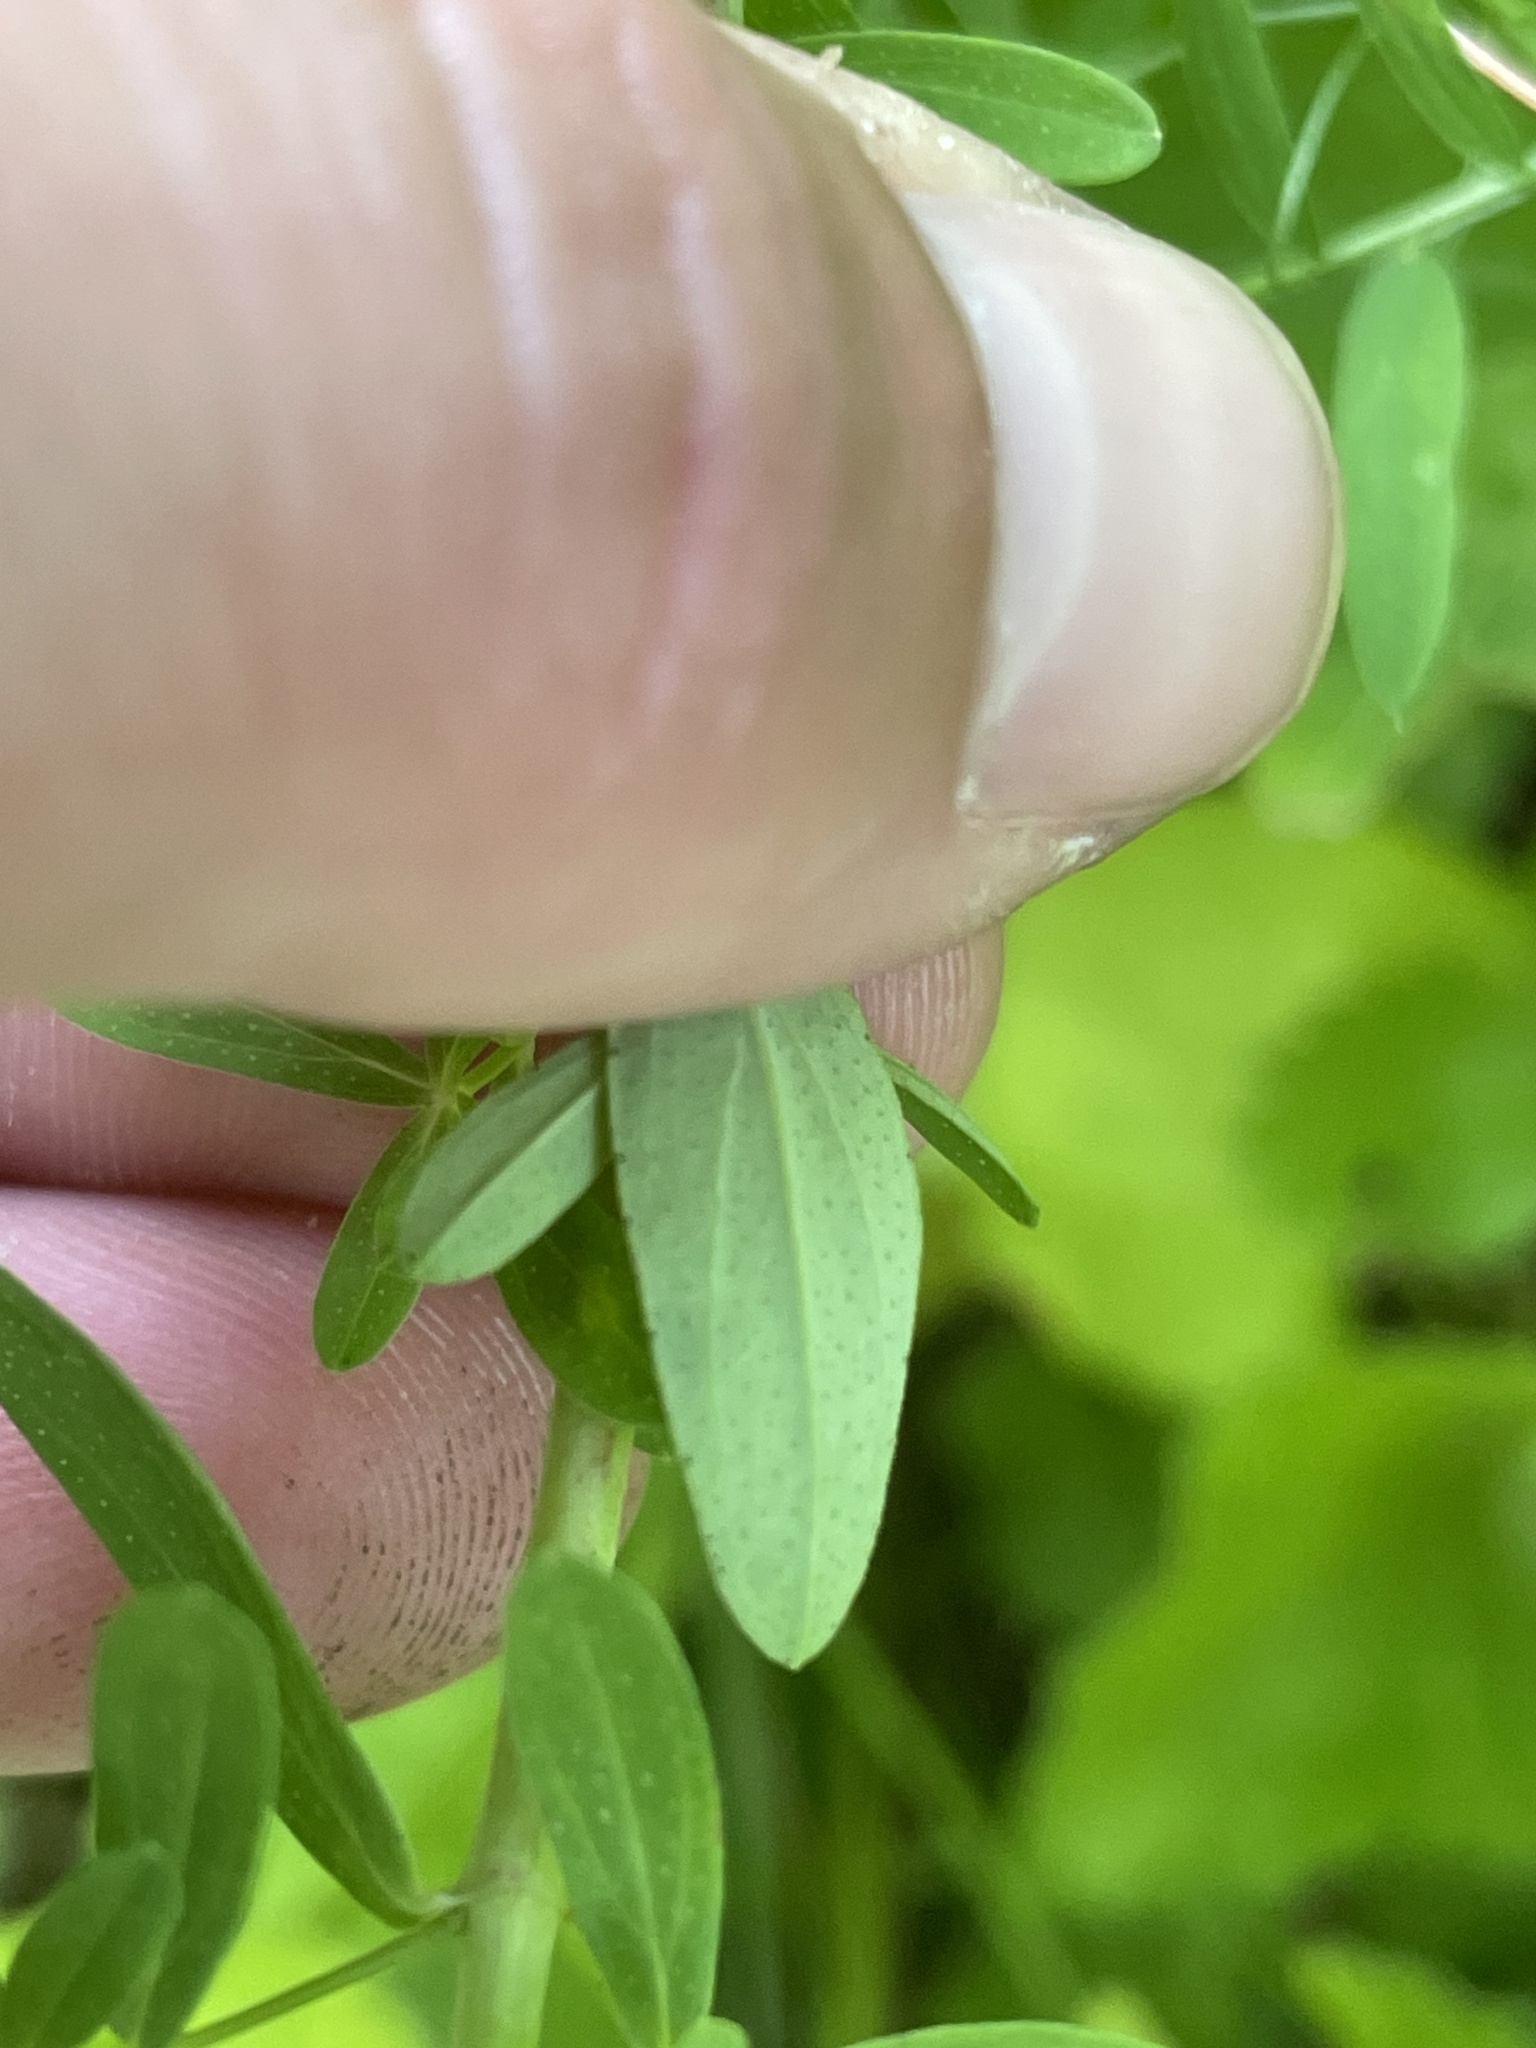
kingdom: Plantae
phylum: Tracheophyta
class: Magnoliopsida
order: Malpighiales
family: Hypericaceae
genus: Hypericum
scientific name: Hypericum perforatum
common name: Common st. johnswort
